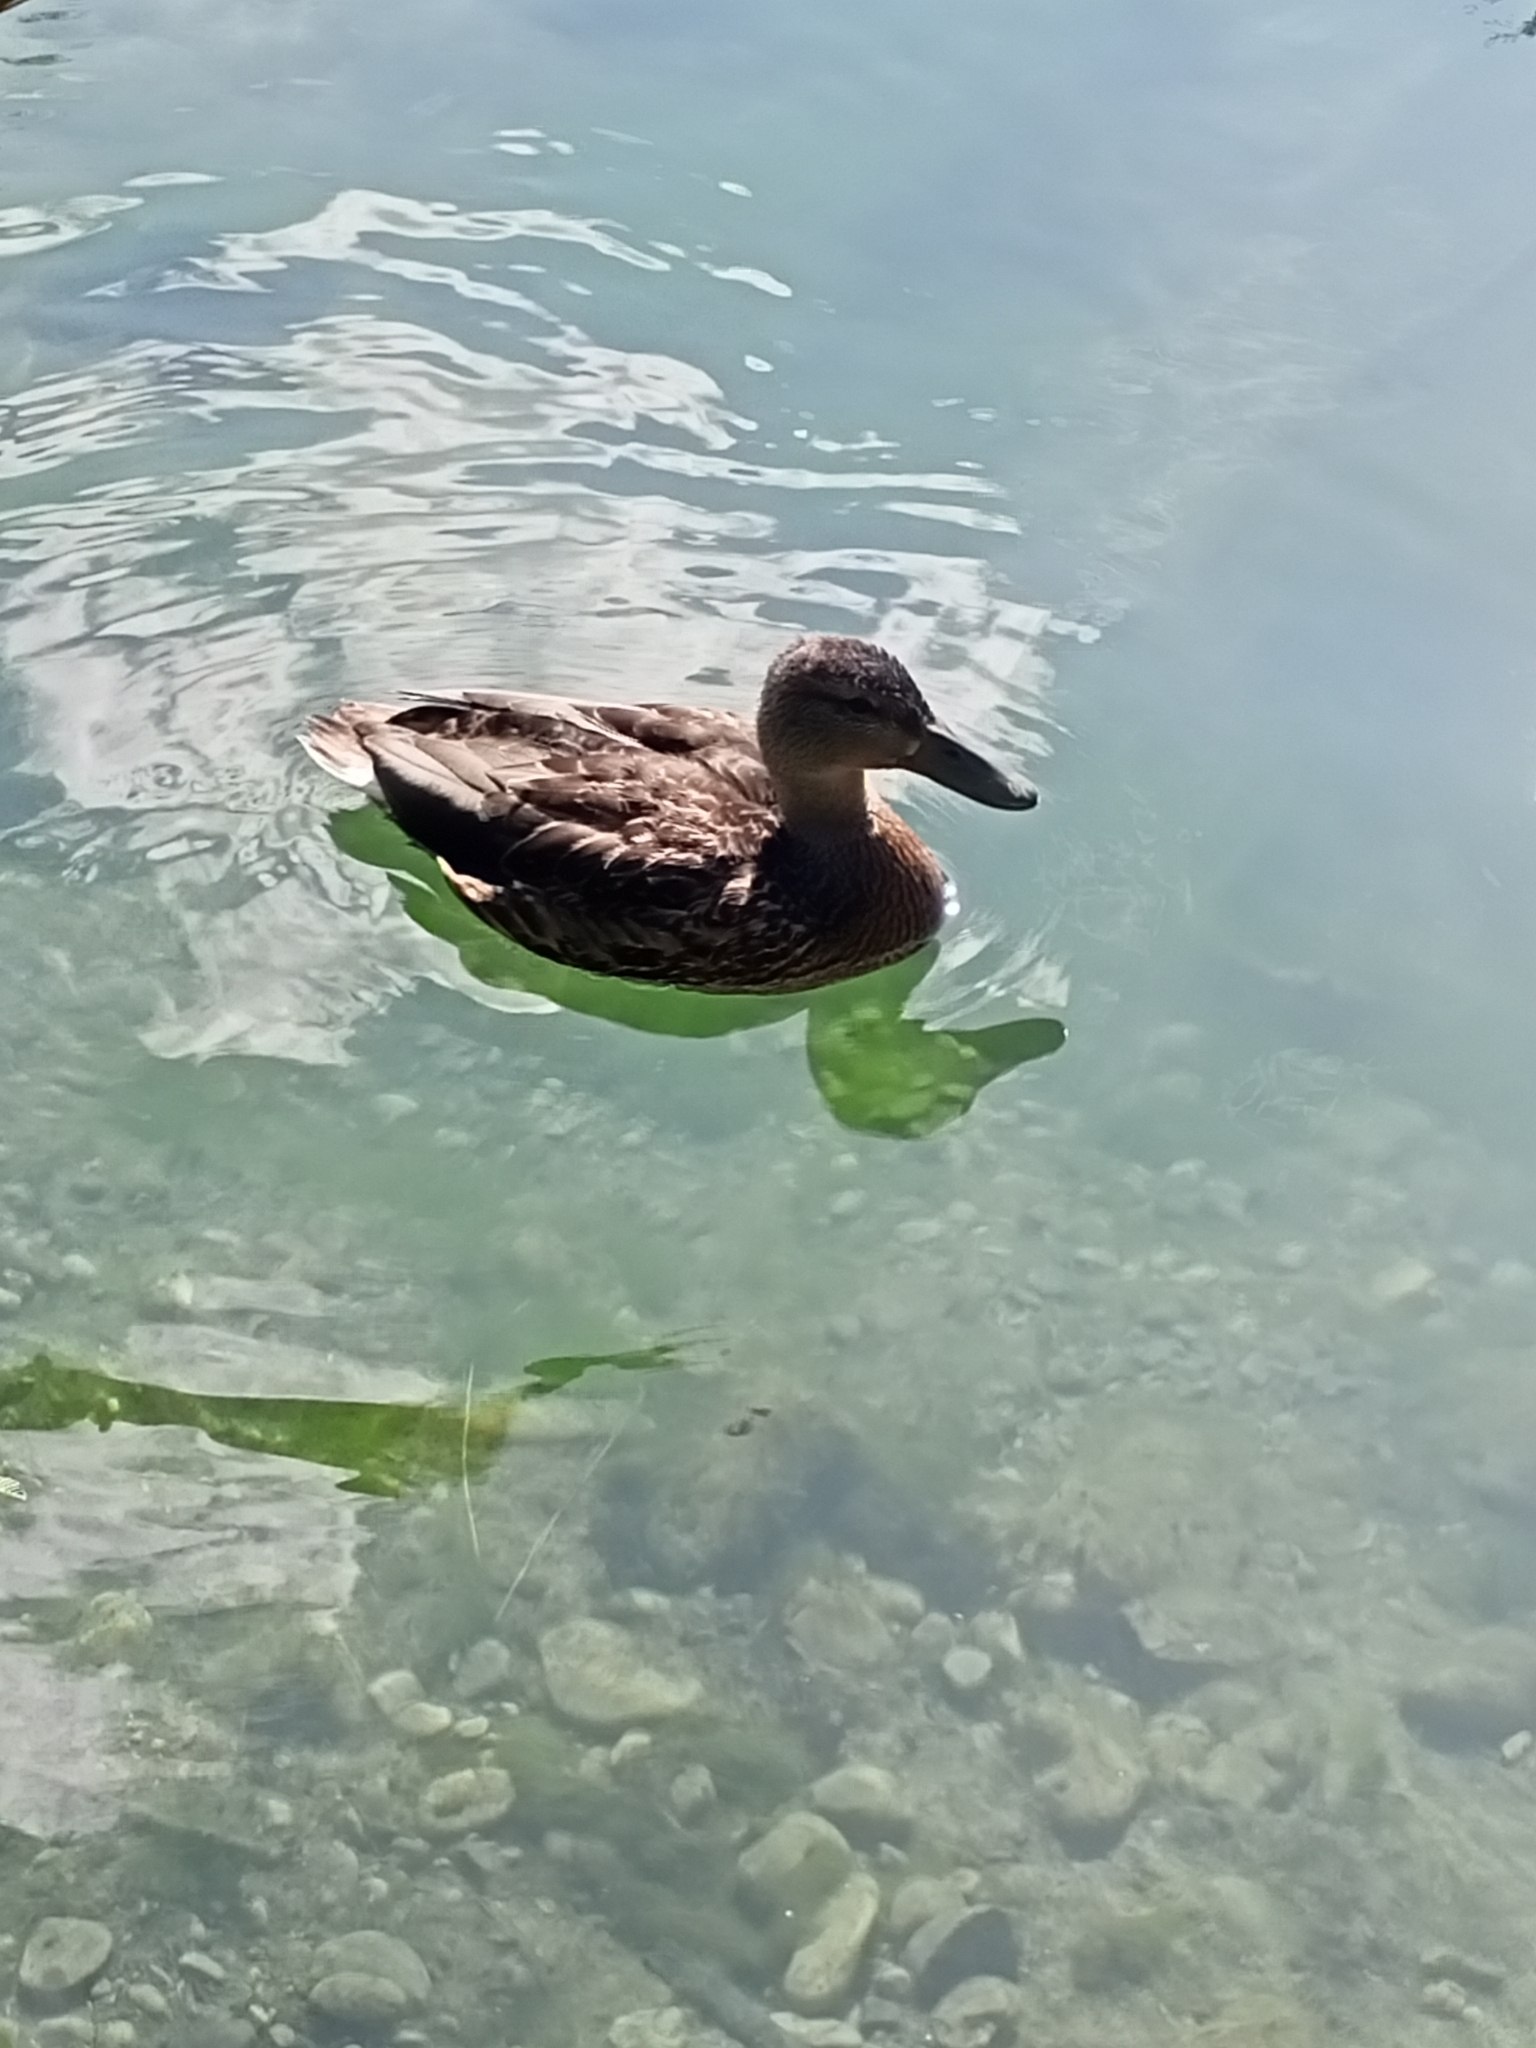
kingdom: Animalia
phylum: Chordata
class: Aves
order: Anseriformes
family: Anatidae
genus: Anas
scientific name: Anas platyrhynchos
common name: Mallard
